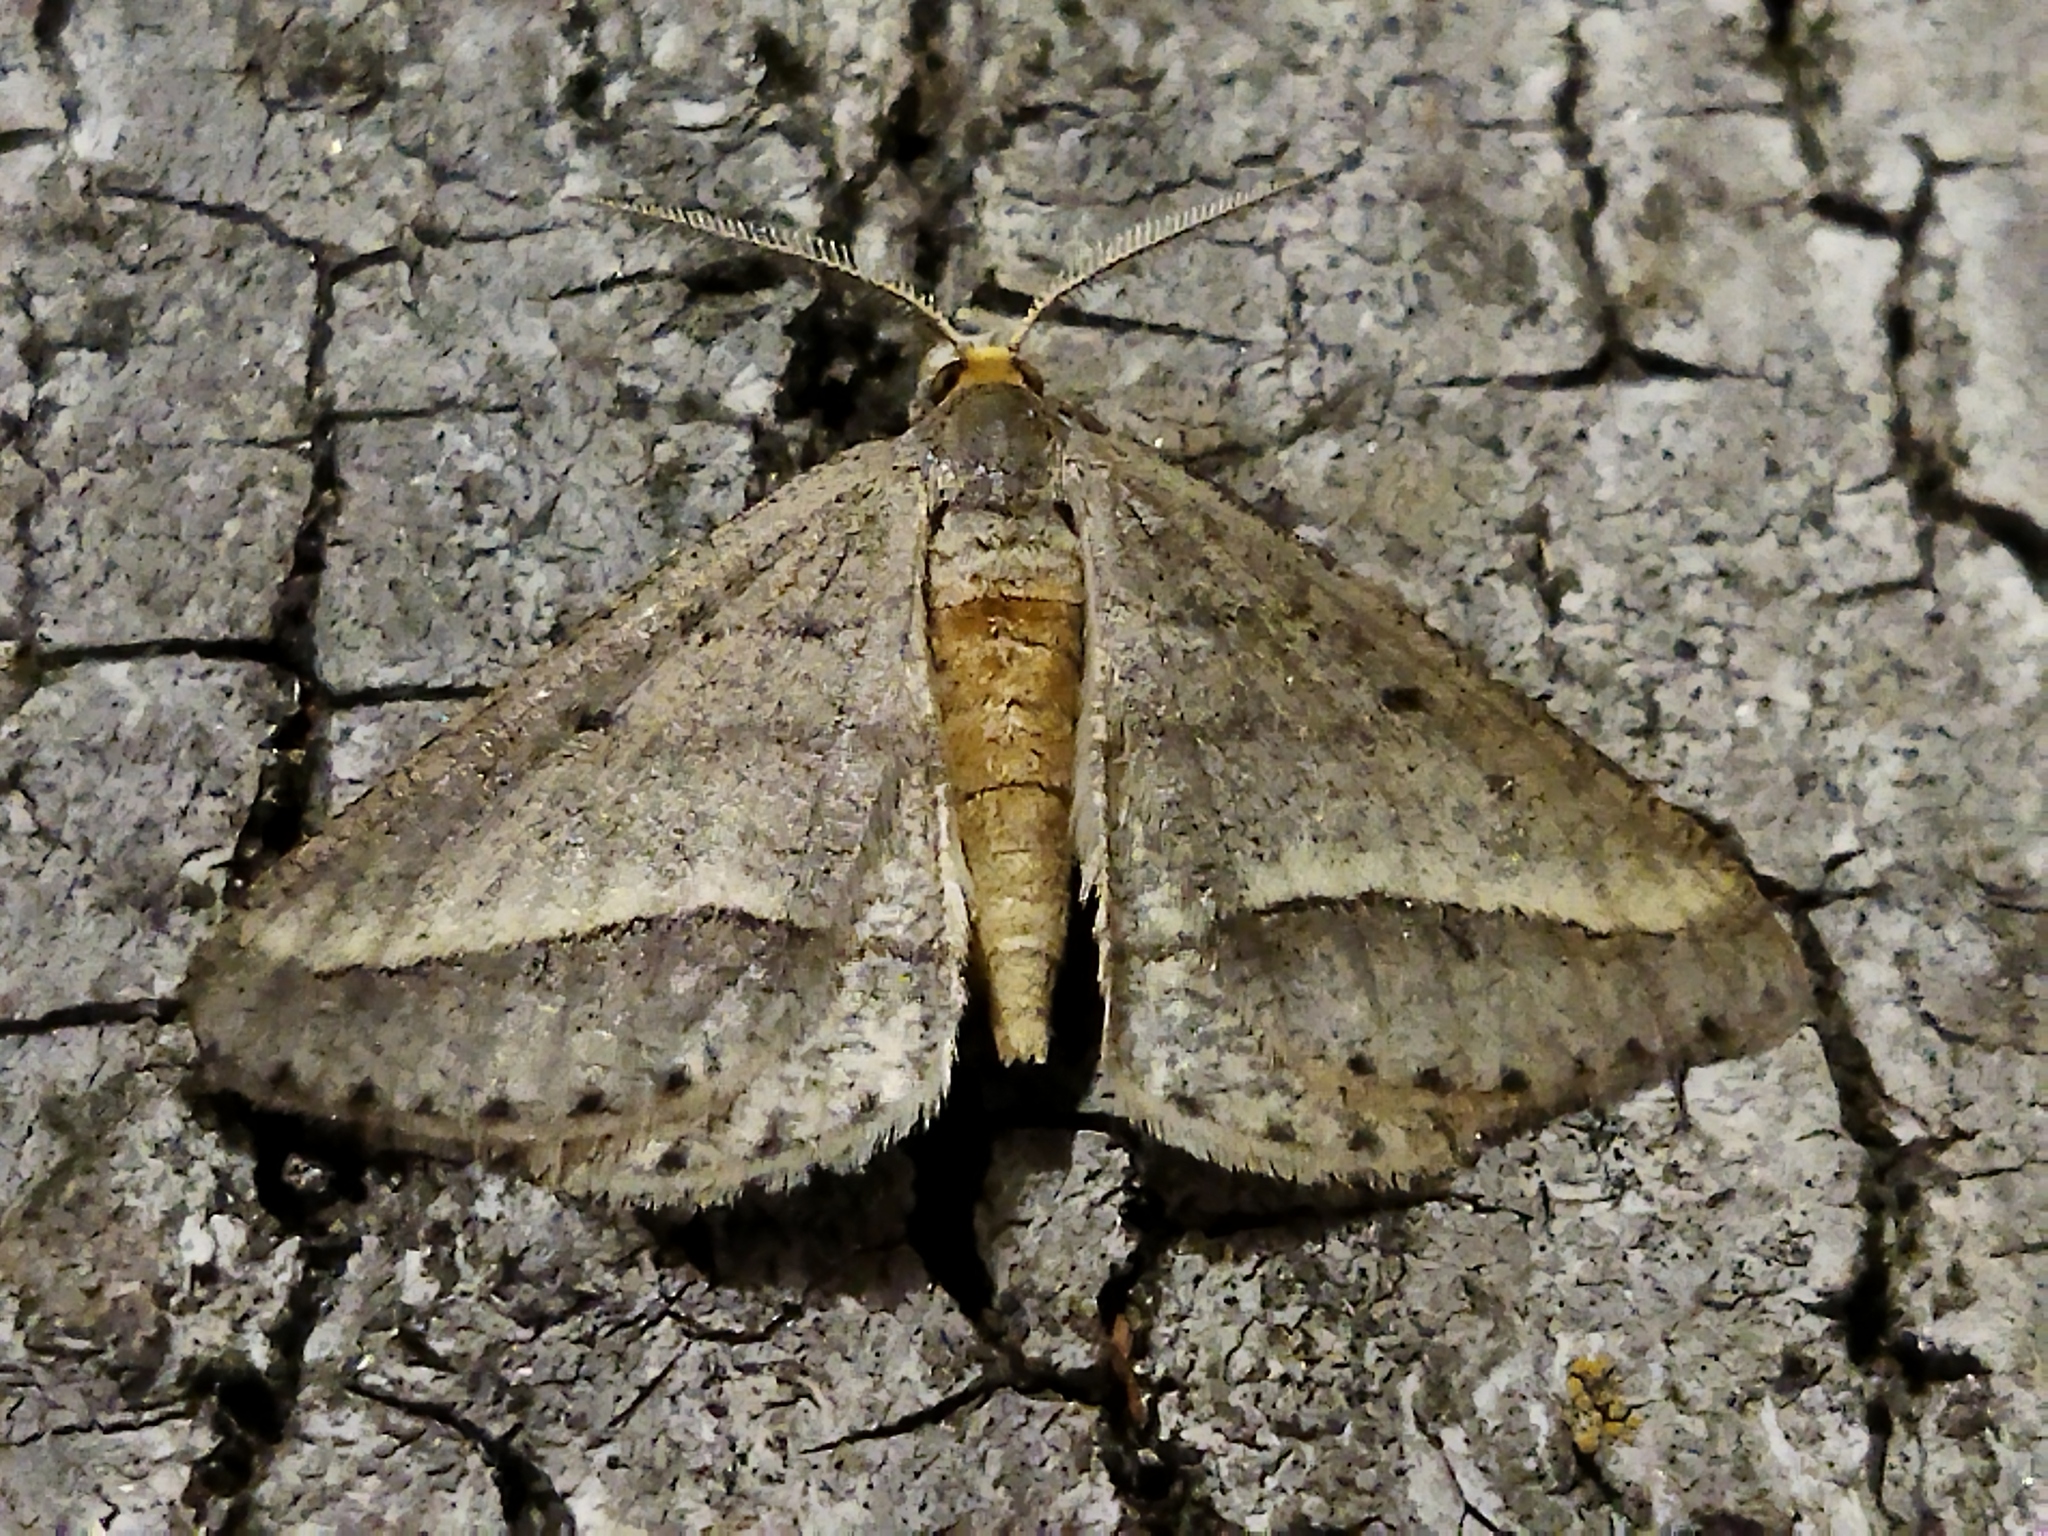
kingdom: Animalia
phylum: Arthropoda
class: Insecta
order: Lepidoptera
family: Geometridae
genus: Tephrina
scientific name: Tephrina arenacearia
